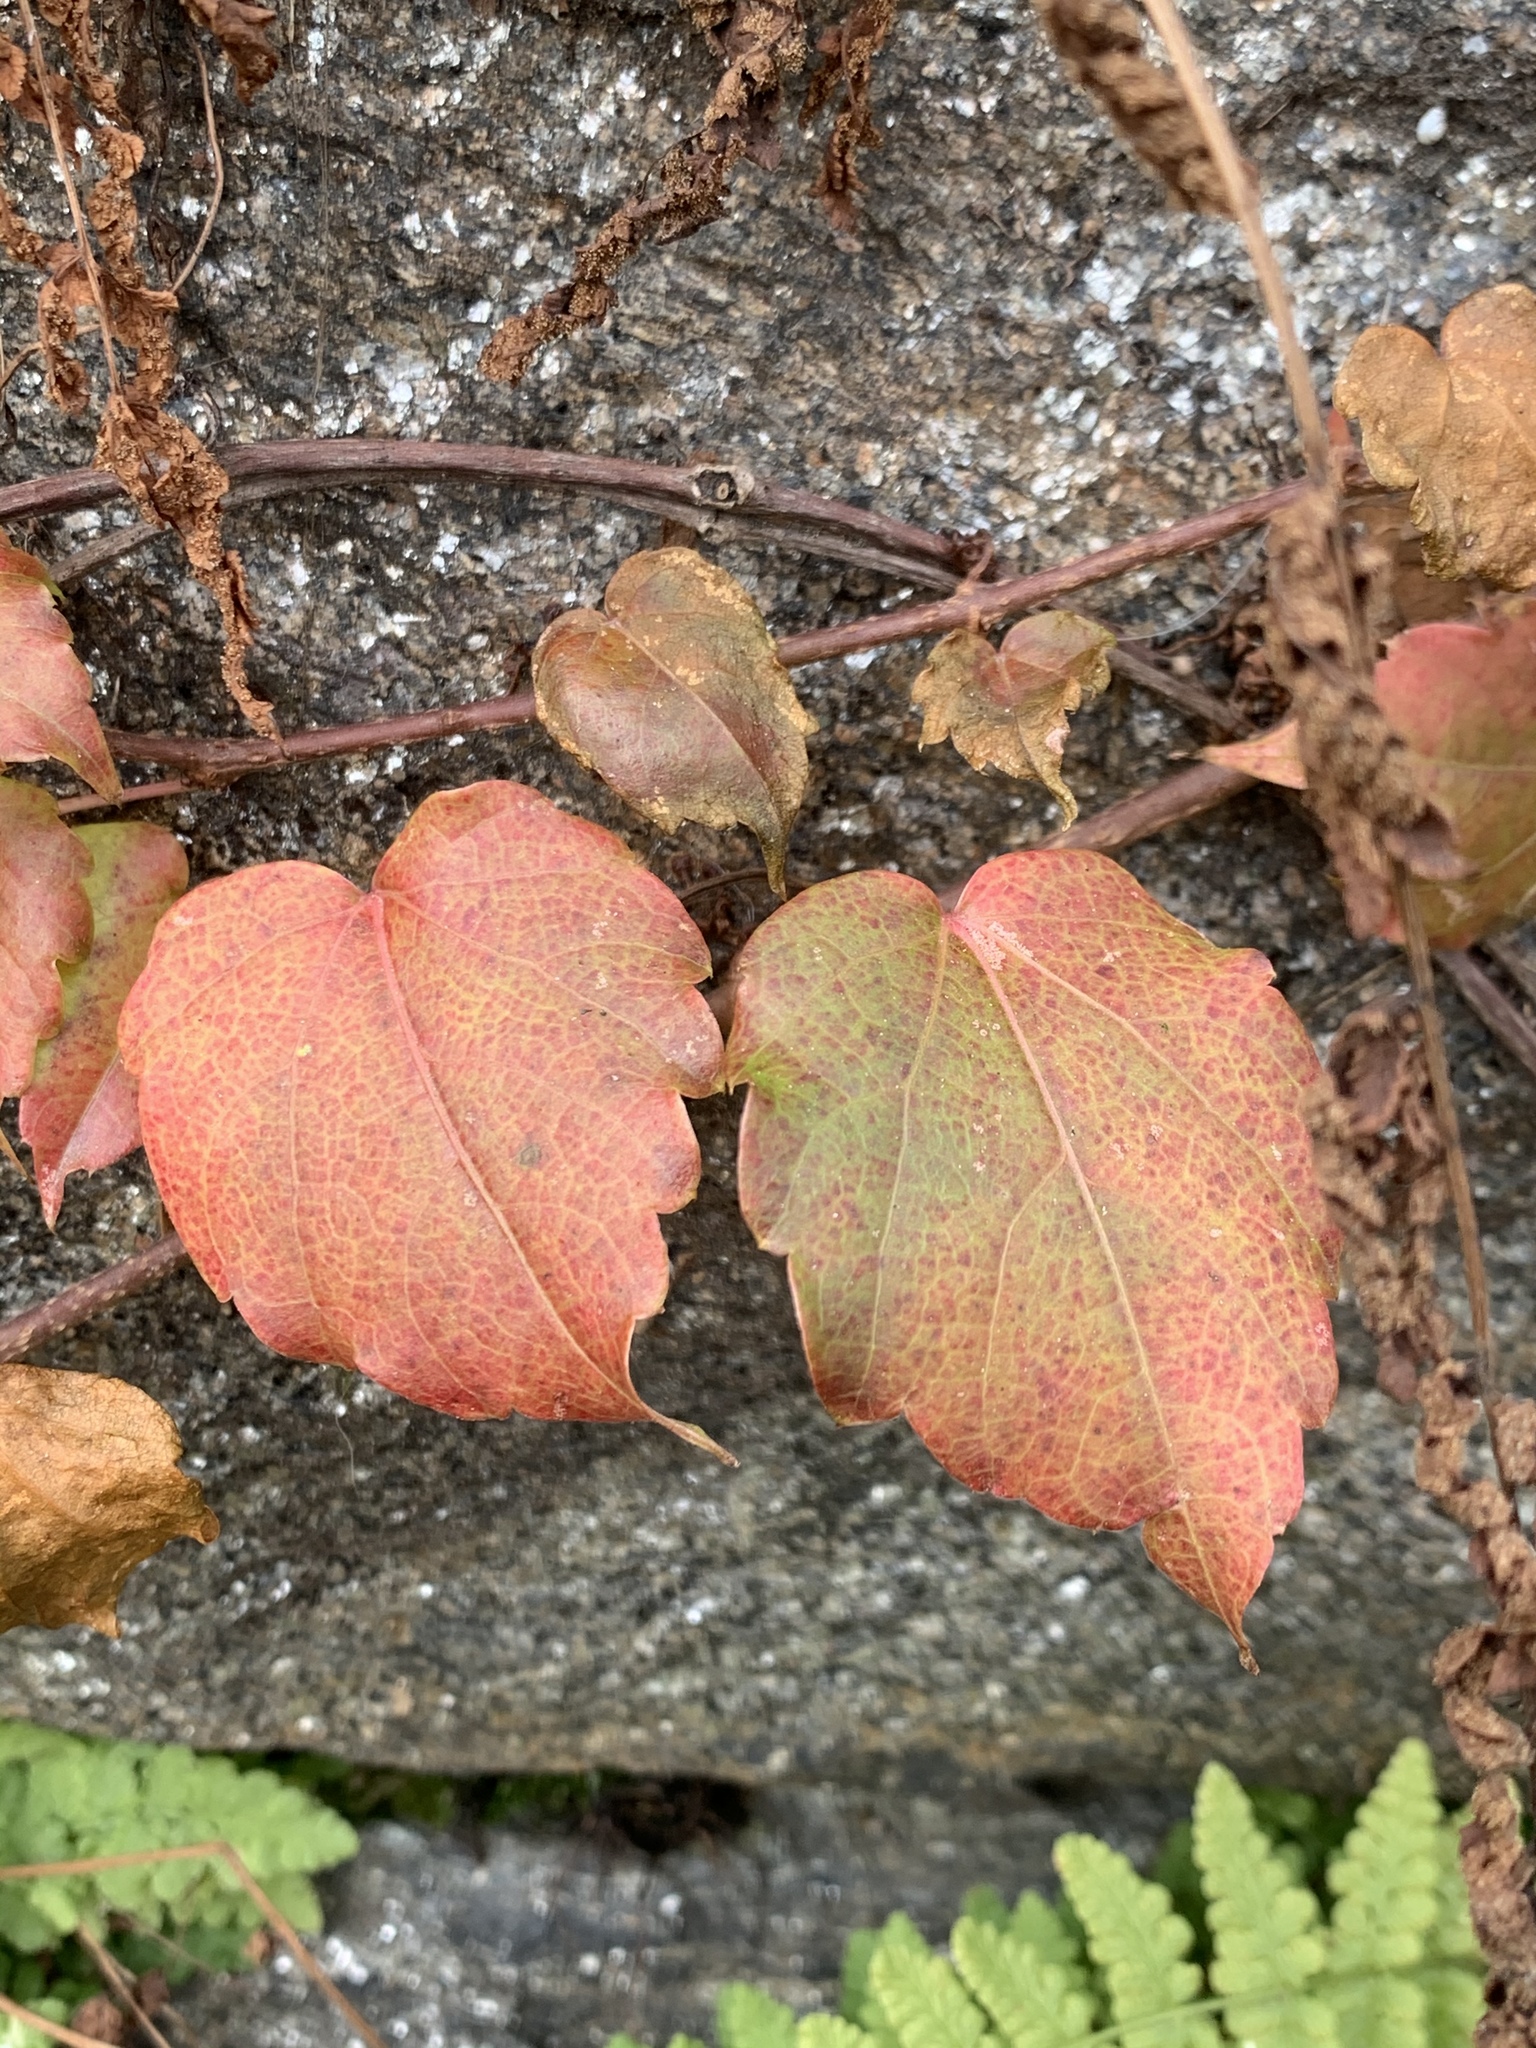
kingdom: Plantae
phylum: Tracheophyta
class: Magnoliopsida
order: Vitales
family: Vitaceae
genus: Parthenocissus
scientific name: Parthenocissus tricuspidata
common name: Boston ivy
